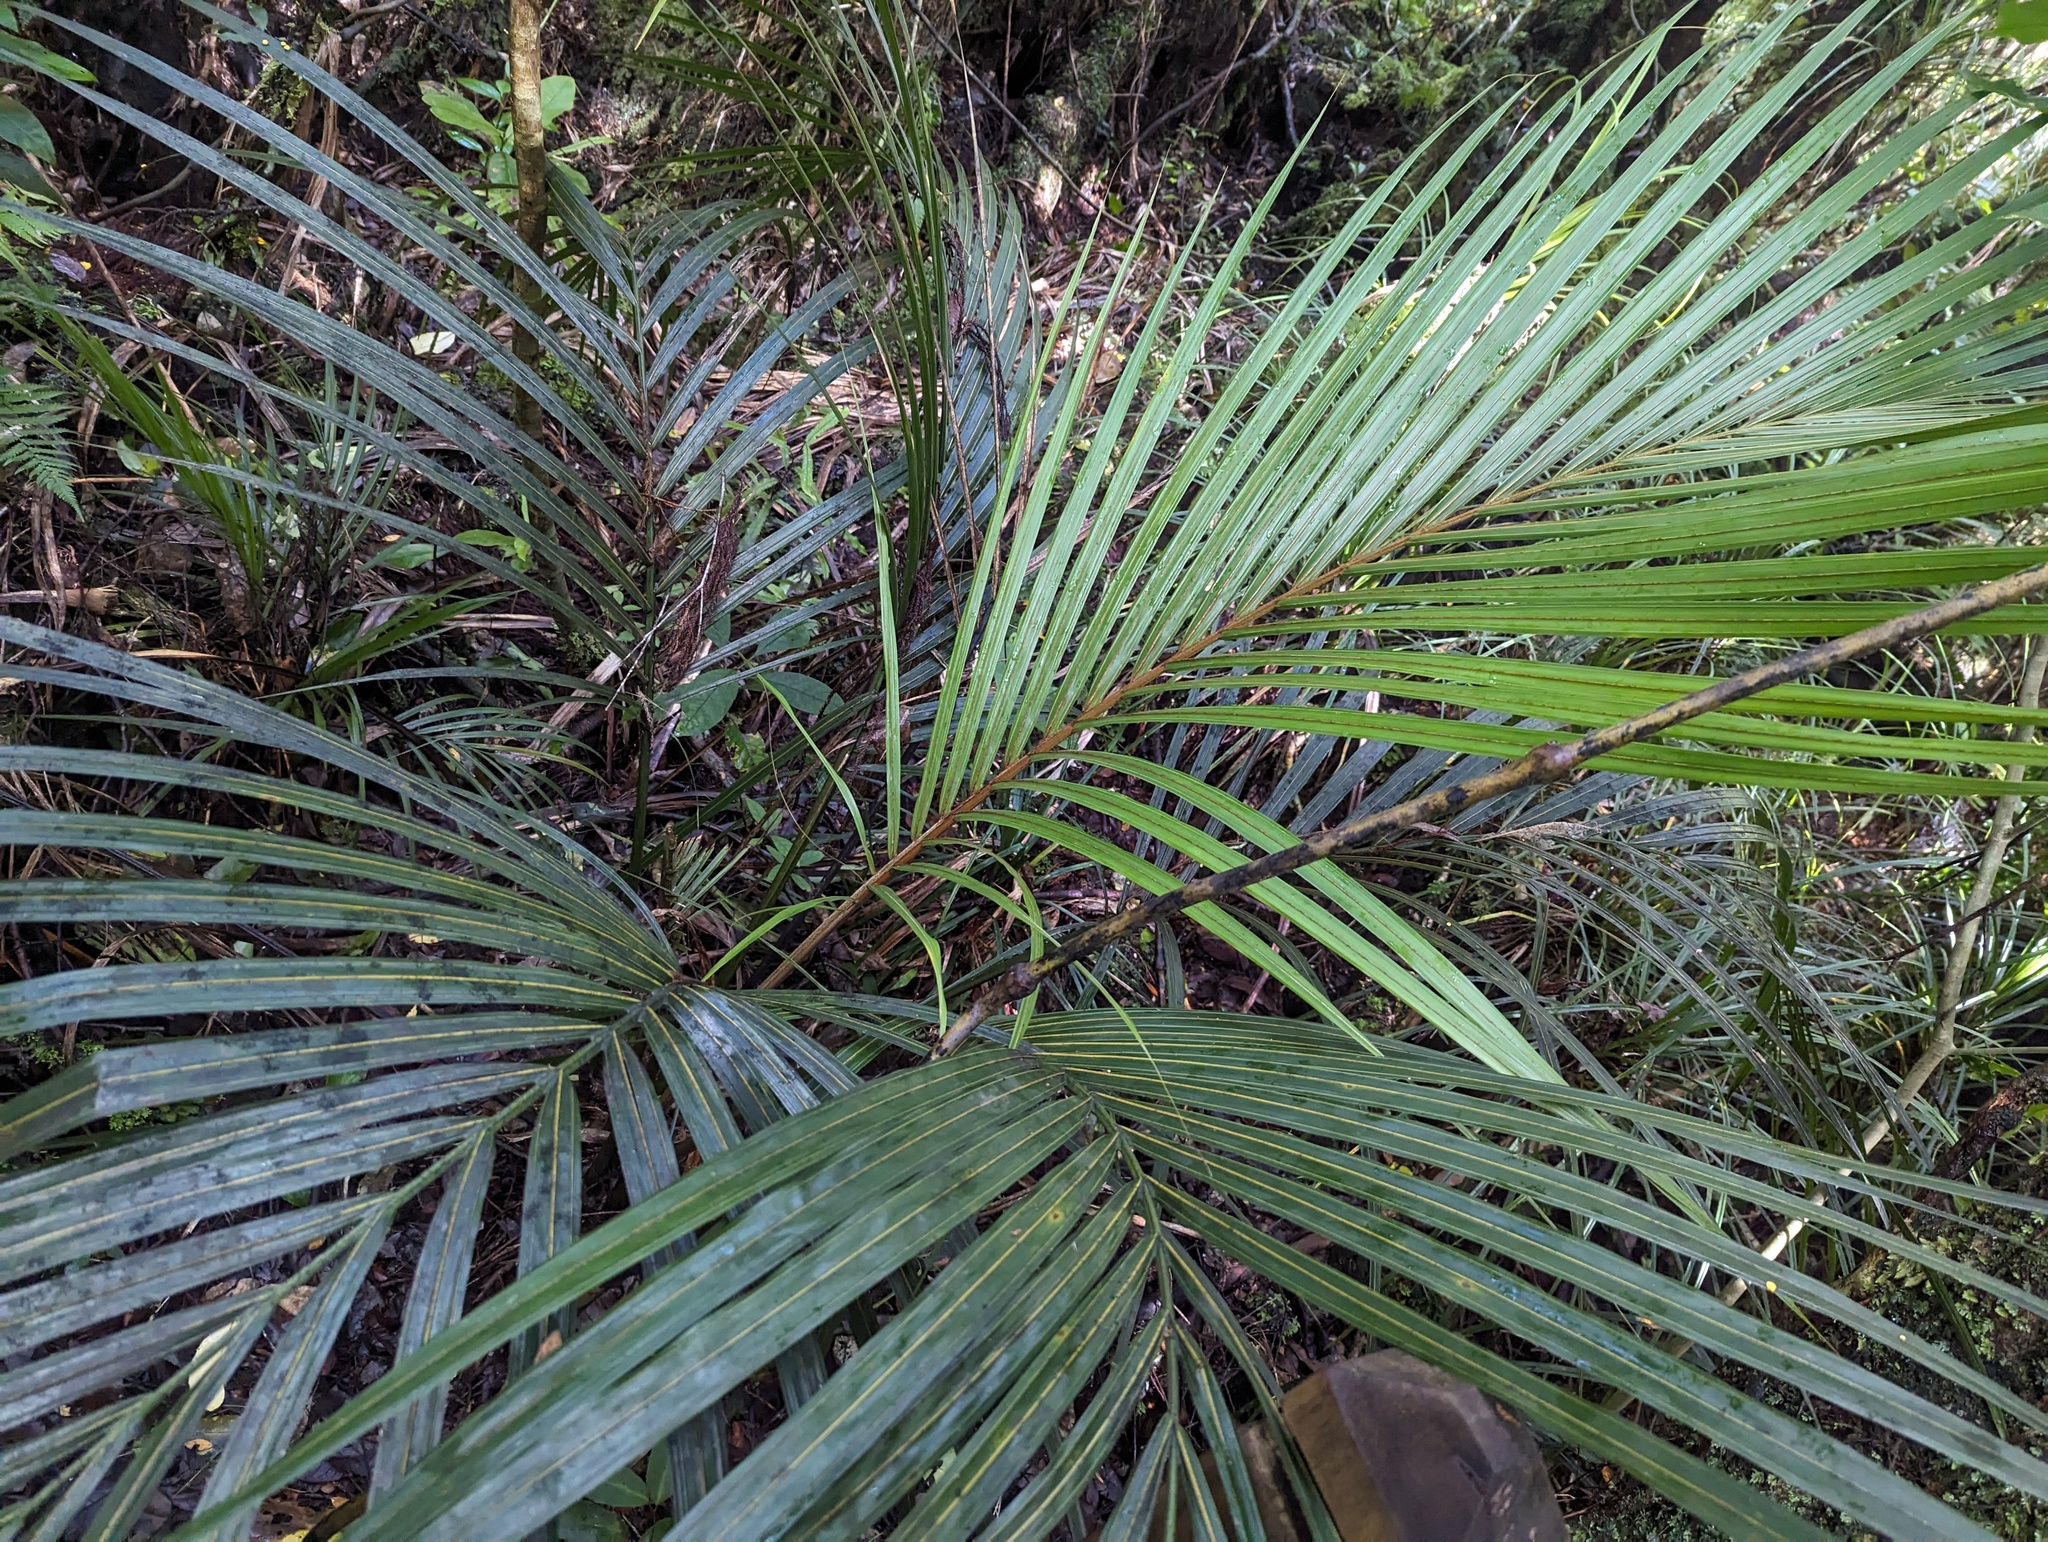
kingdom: Plantae
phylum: Tracheophyta
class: Liliopsida
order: Arecales
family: Arecaceae
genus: Rhopalostylis
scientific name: Rhopalostylis sapida
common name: Feather-duster palm
